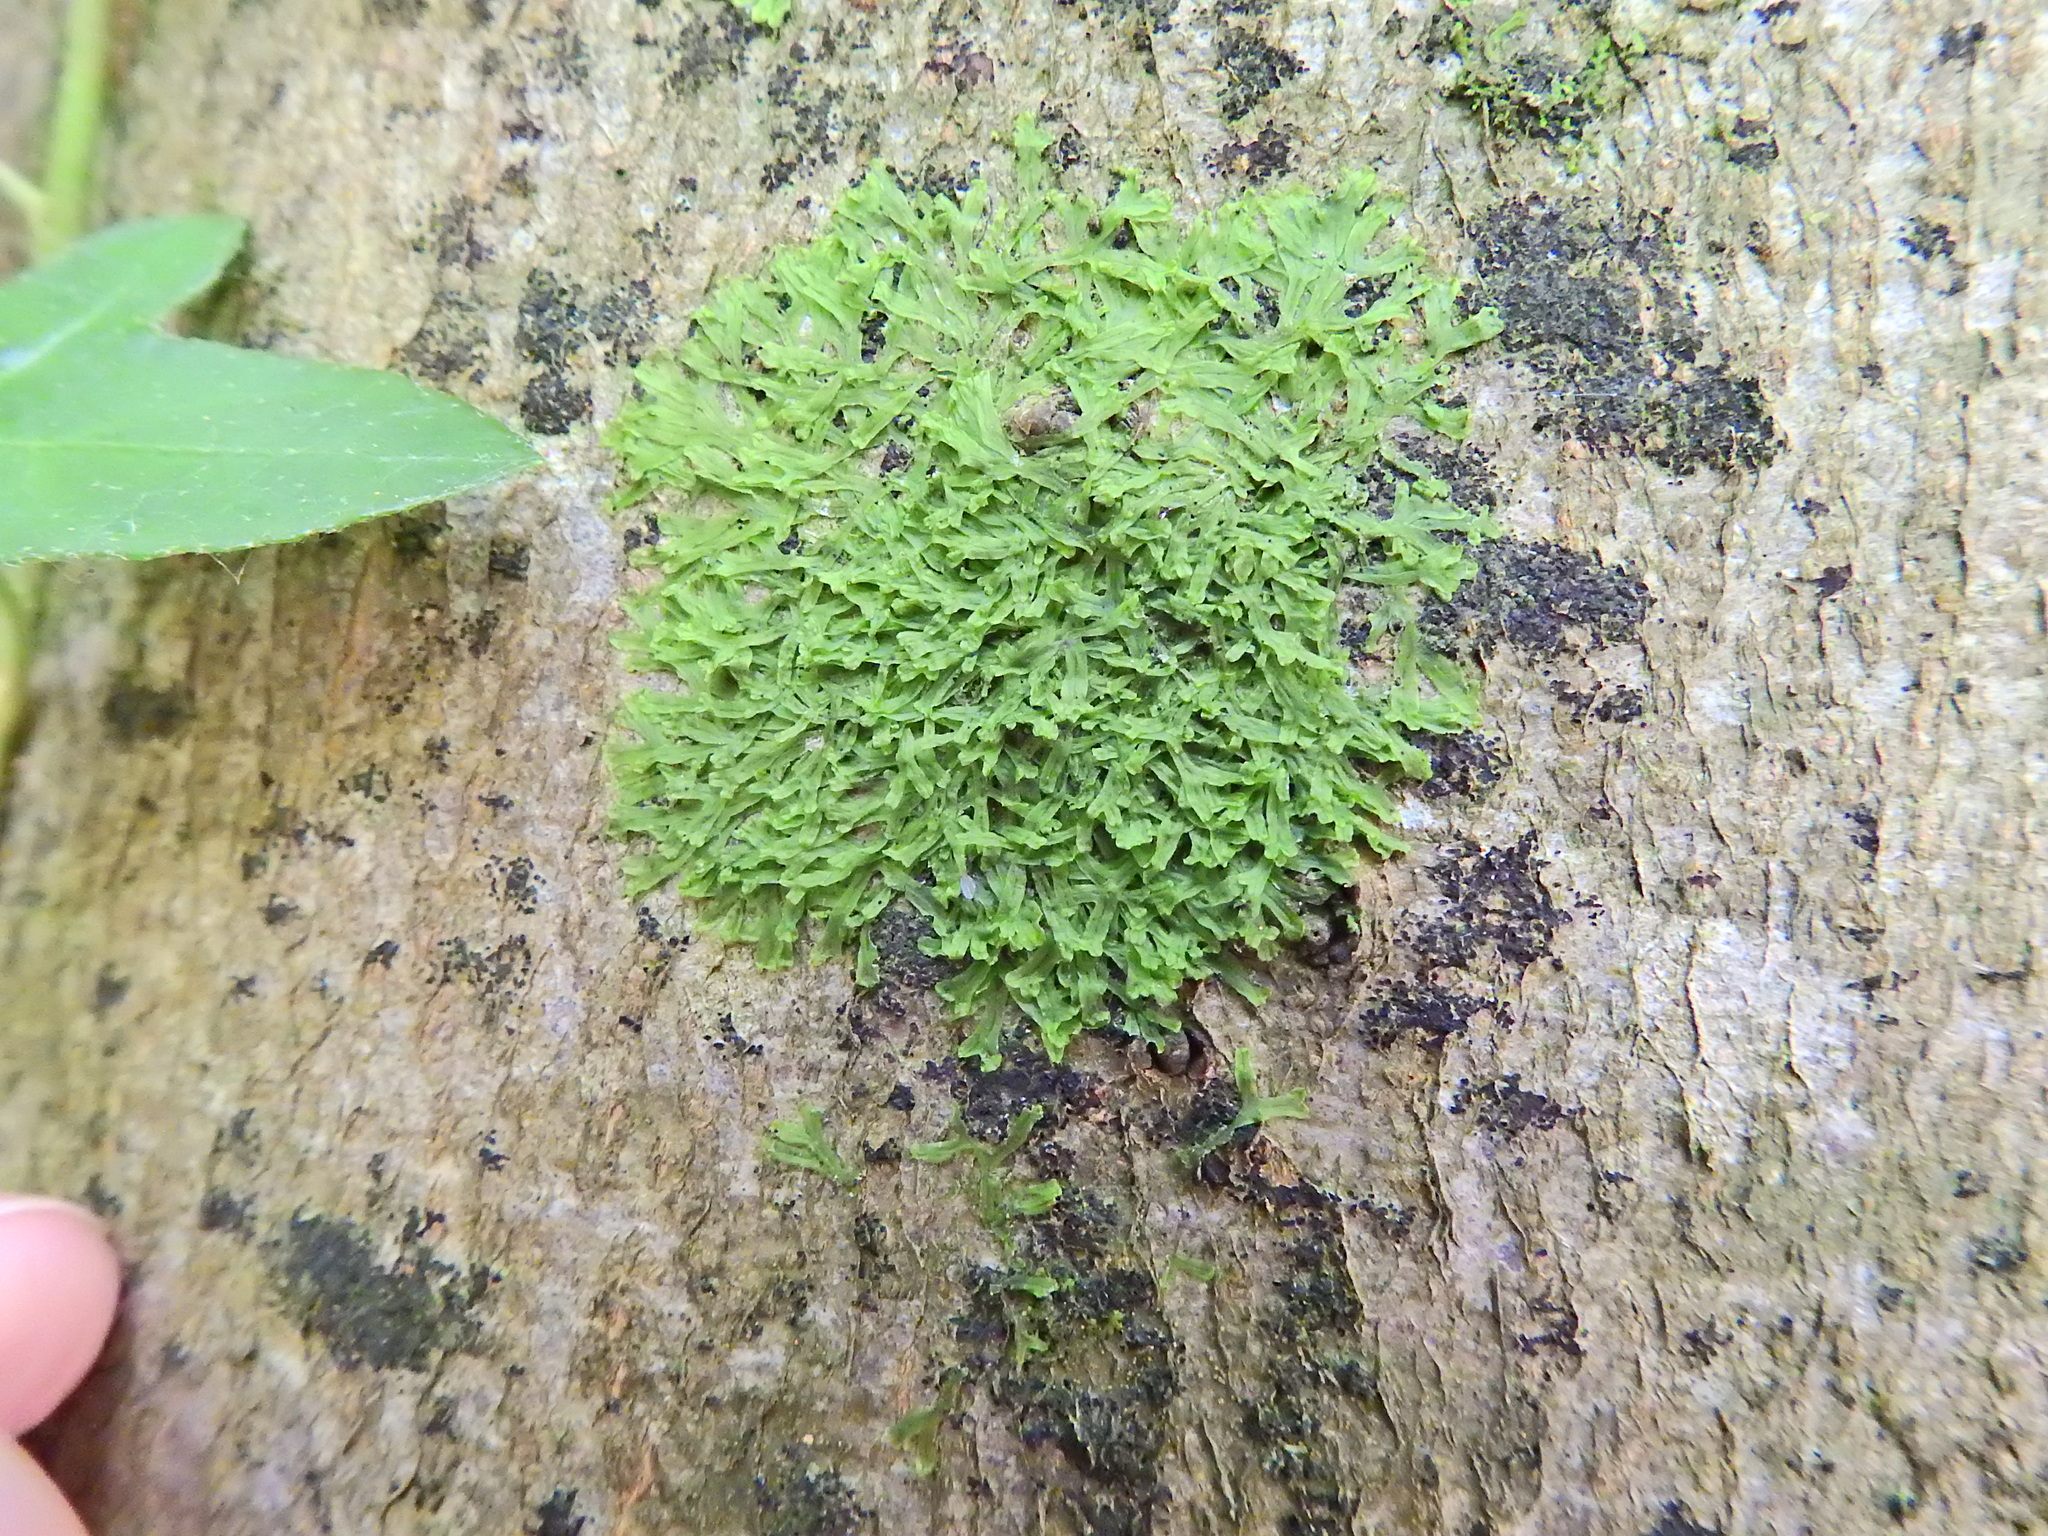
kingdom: Plantae
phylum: Marchantiophyta
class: Jungermanniopsida
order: Metzgeriales
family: Metzgeriaceae
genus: Metzgeria
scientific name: Metzgeria furcata
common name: Forked veilwort
